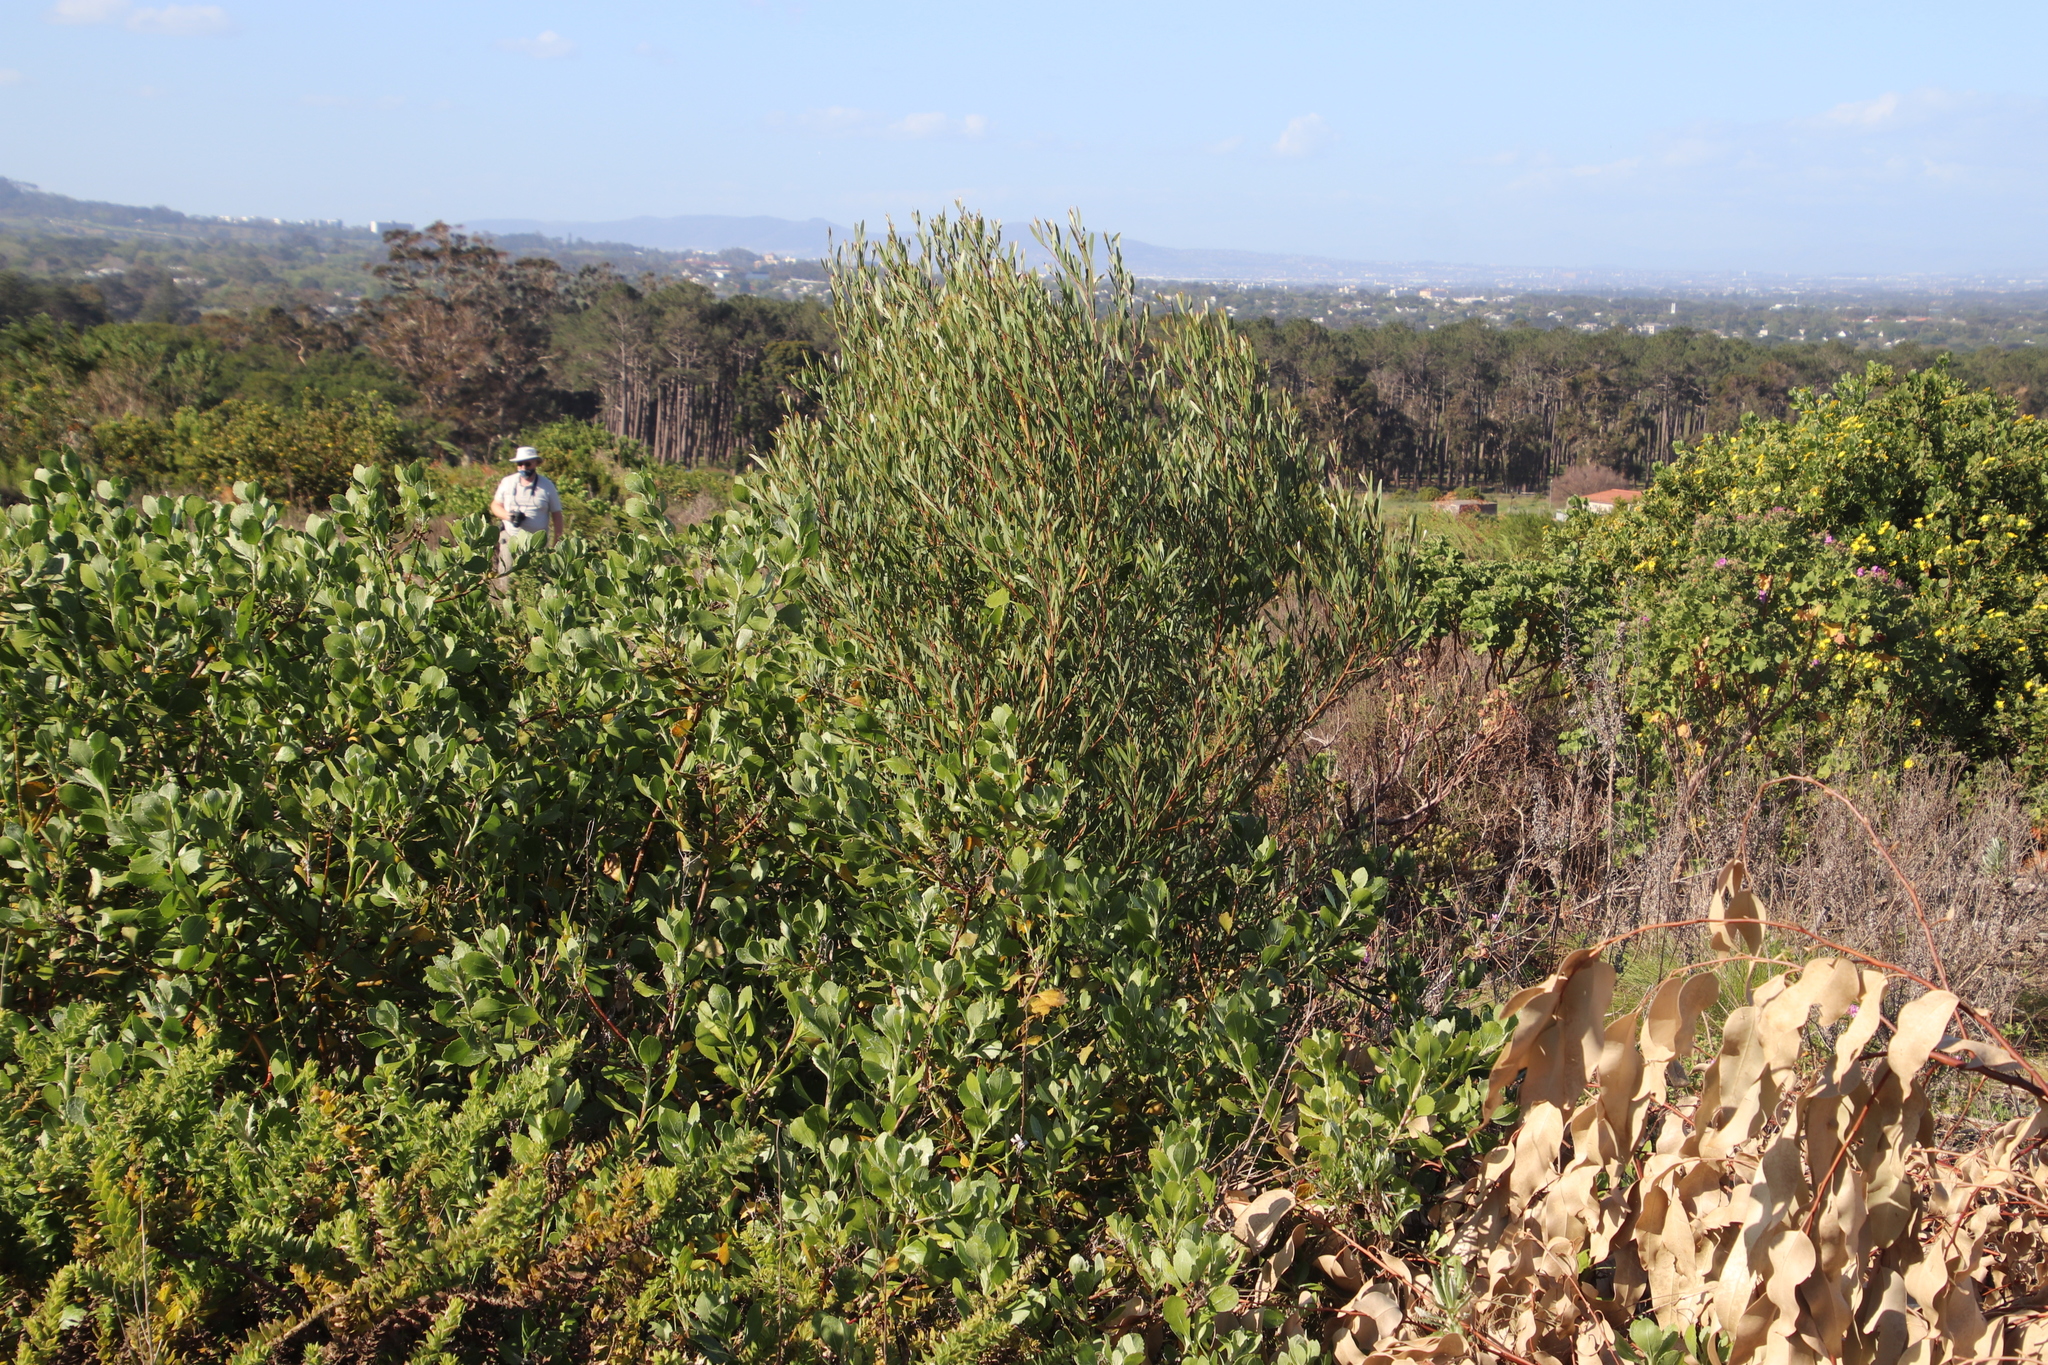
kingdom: Plantae
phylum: Tracheophyta
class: Magnoliopsida
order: Fabales
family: Fabaceae
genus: Acacia
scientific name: Acacia cyclops
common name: Coastal wattle
